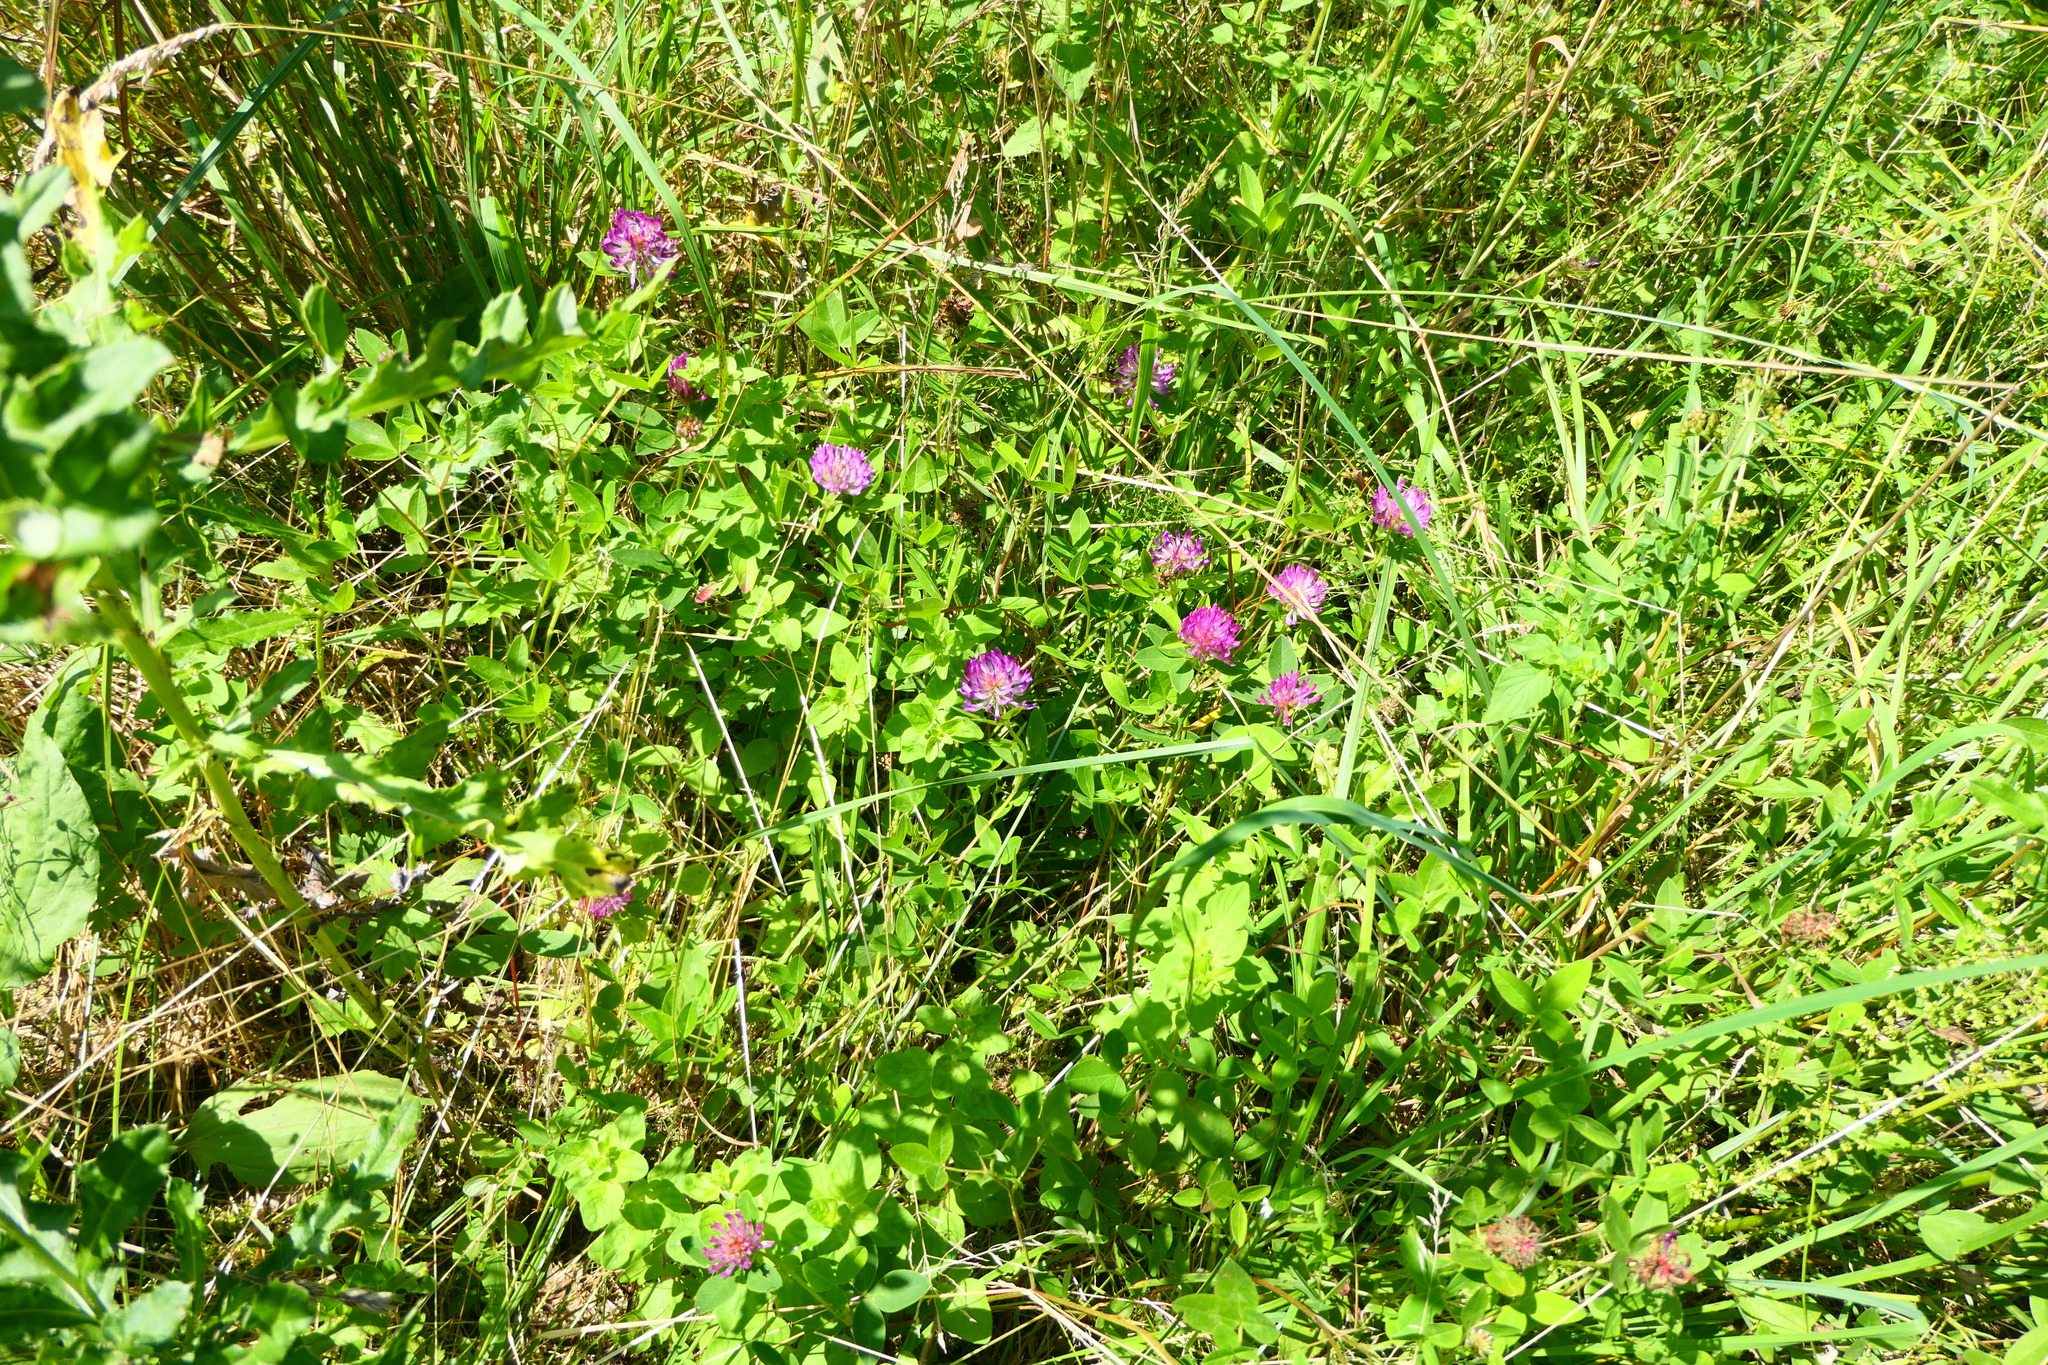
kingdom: Plantae
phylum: Tracheophyta
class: Magnoliopsida
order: Fabales
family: Fabaceae
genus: Trifolium
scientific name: Trifolium medium
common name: Zigzag clover
